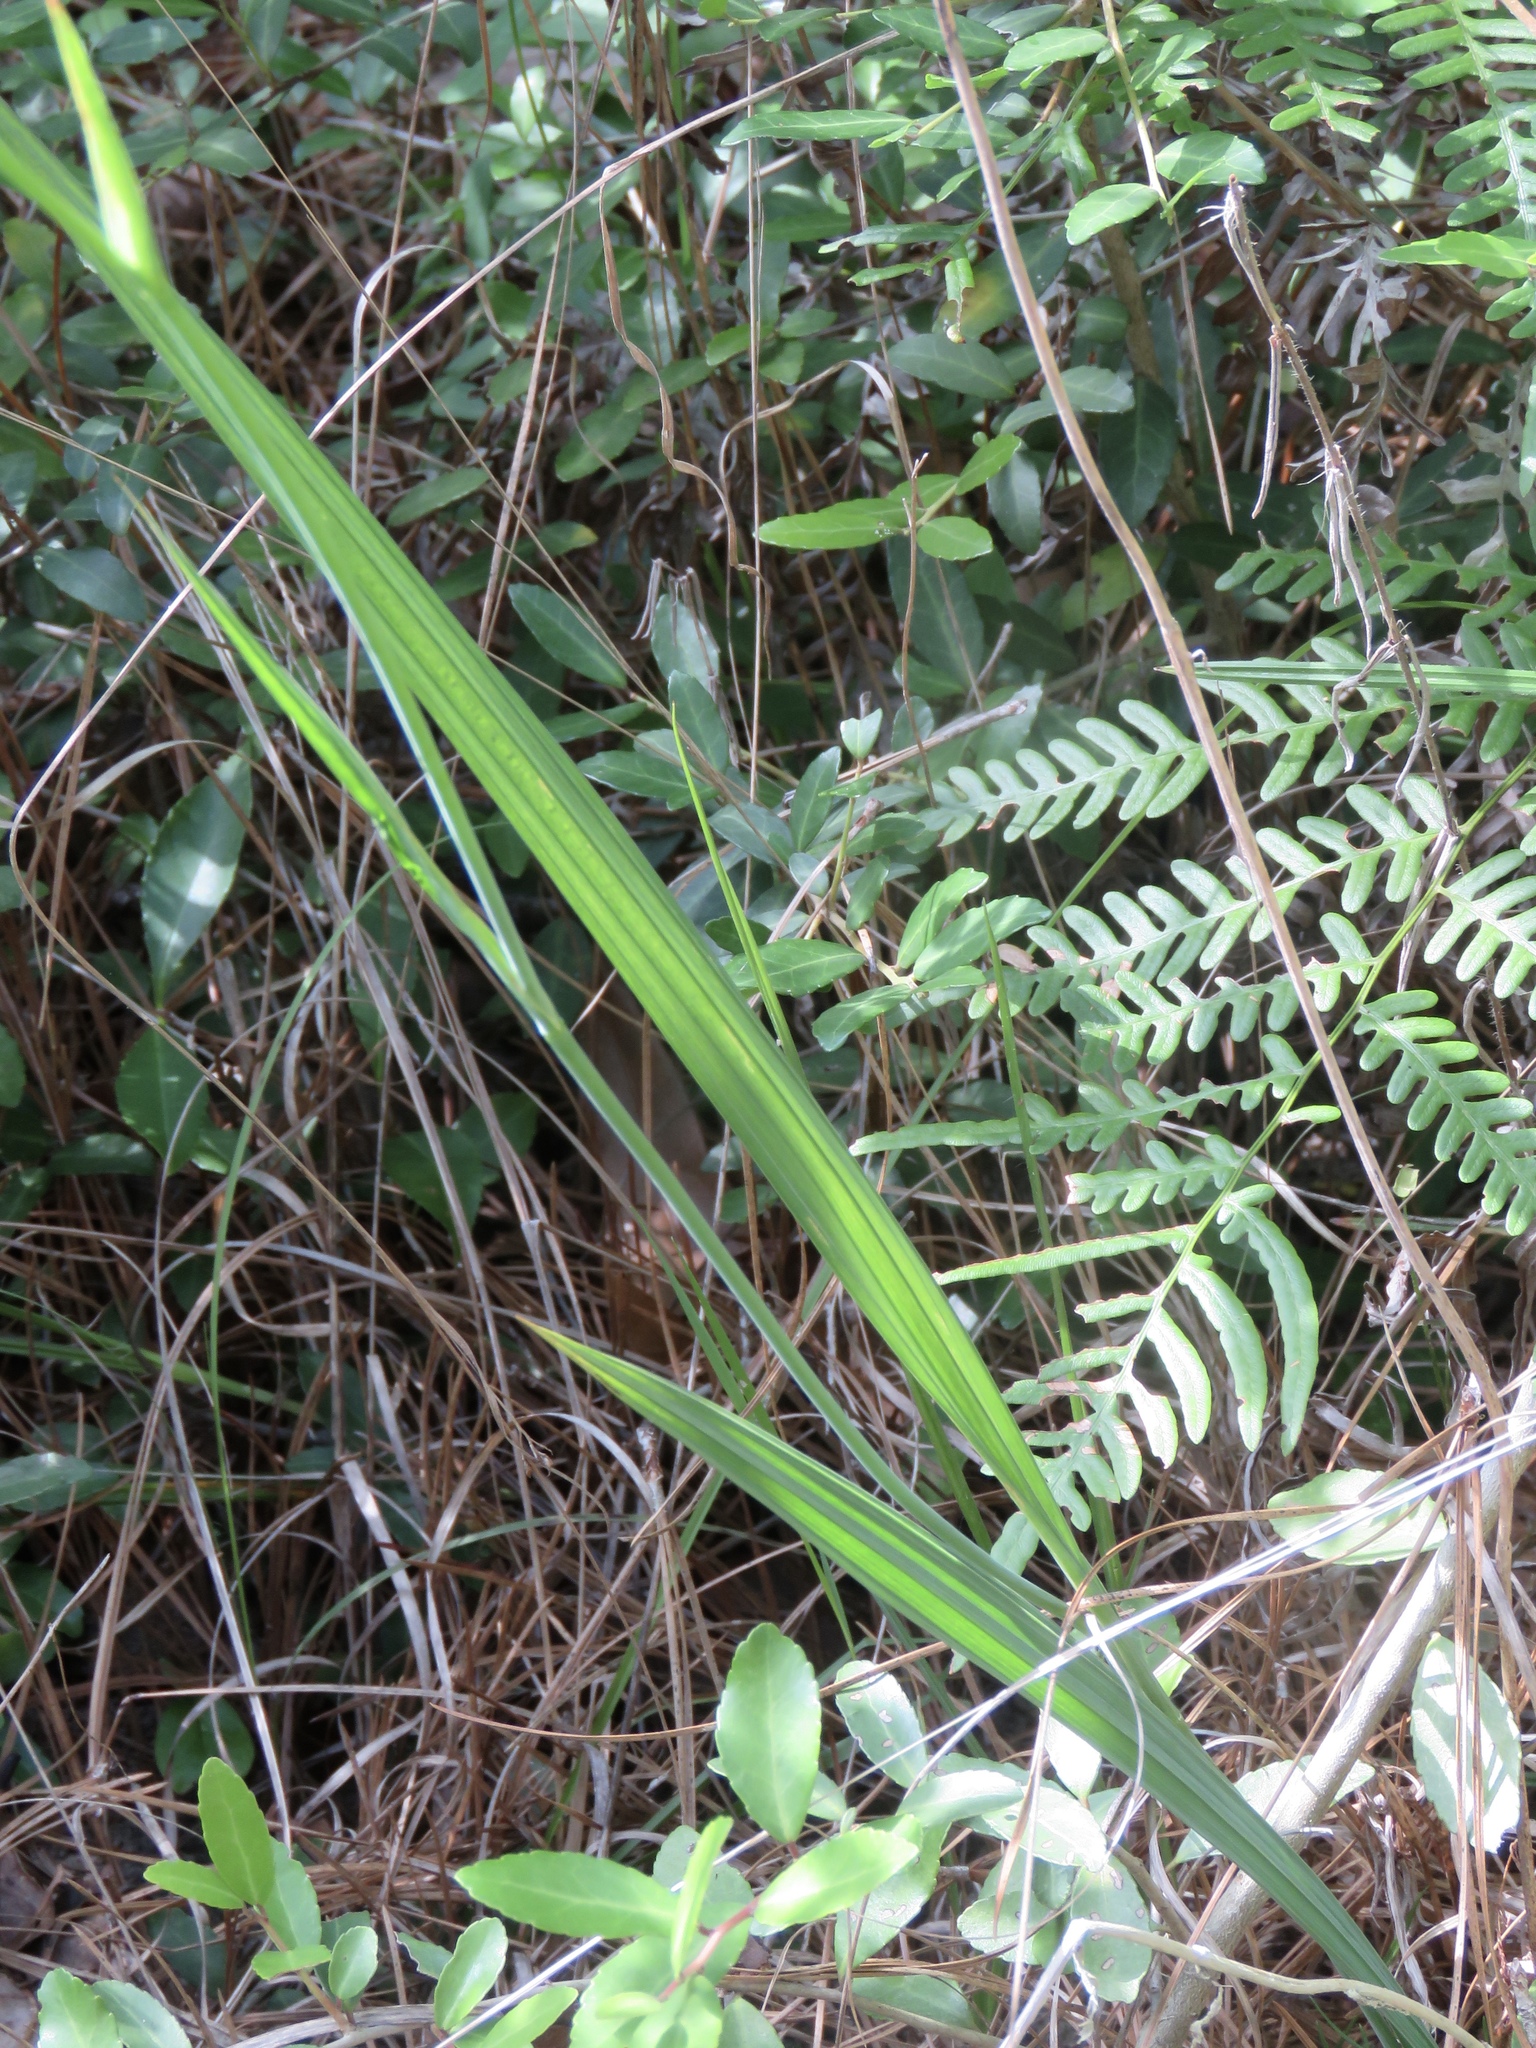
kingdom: Plantae
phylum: Tracheophyta
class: Liliopsida
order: Asparagales
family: Iridaceae
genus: Alophia
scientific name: Alophia drummondii
